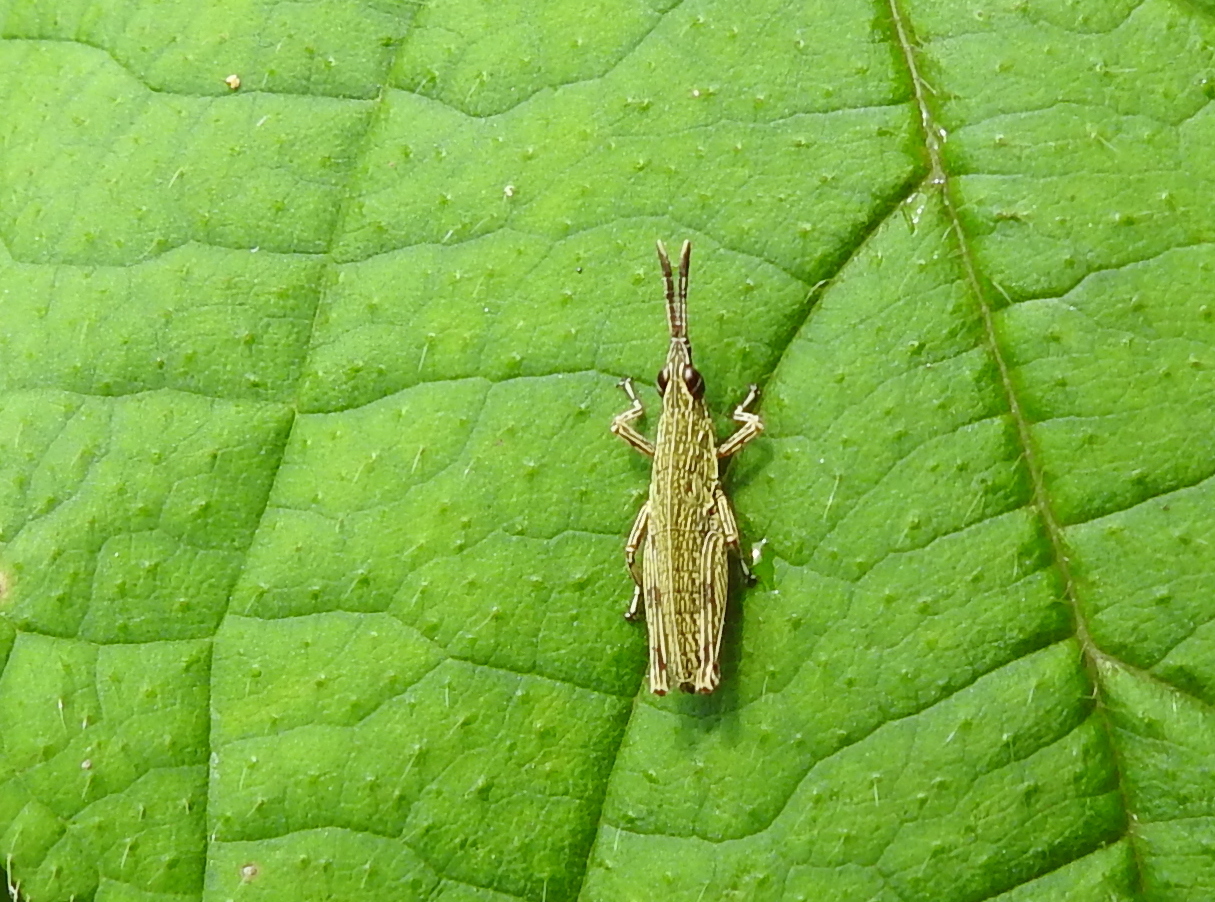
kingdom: Animalia
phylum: Arthropoda
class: Insecta
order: Orthoptera
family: Pyrgomorphidae
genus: Tagasta
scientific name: Tagasta marginella
